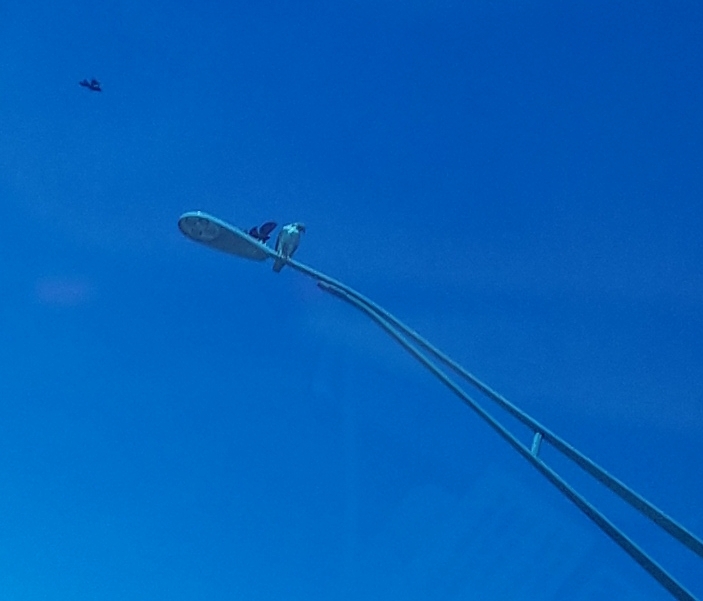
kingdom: Animalia
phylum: Chordata
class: Aves
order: Accipitriformes
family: Accipitridae
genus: Buteo
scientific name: Buteo jamaicensis
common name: Red-tailed hawk
